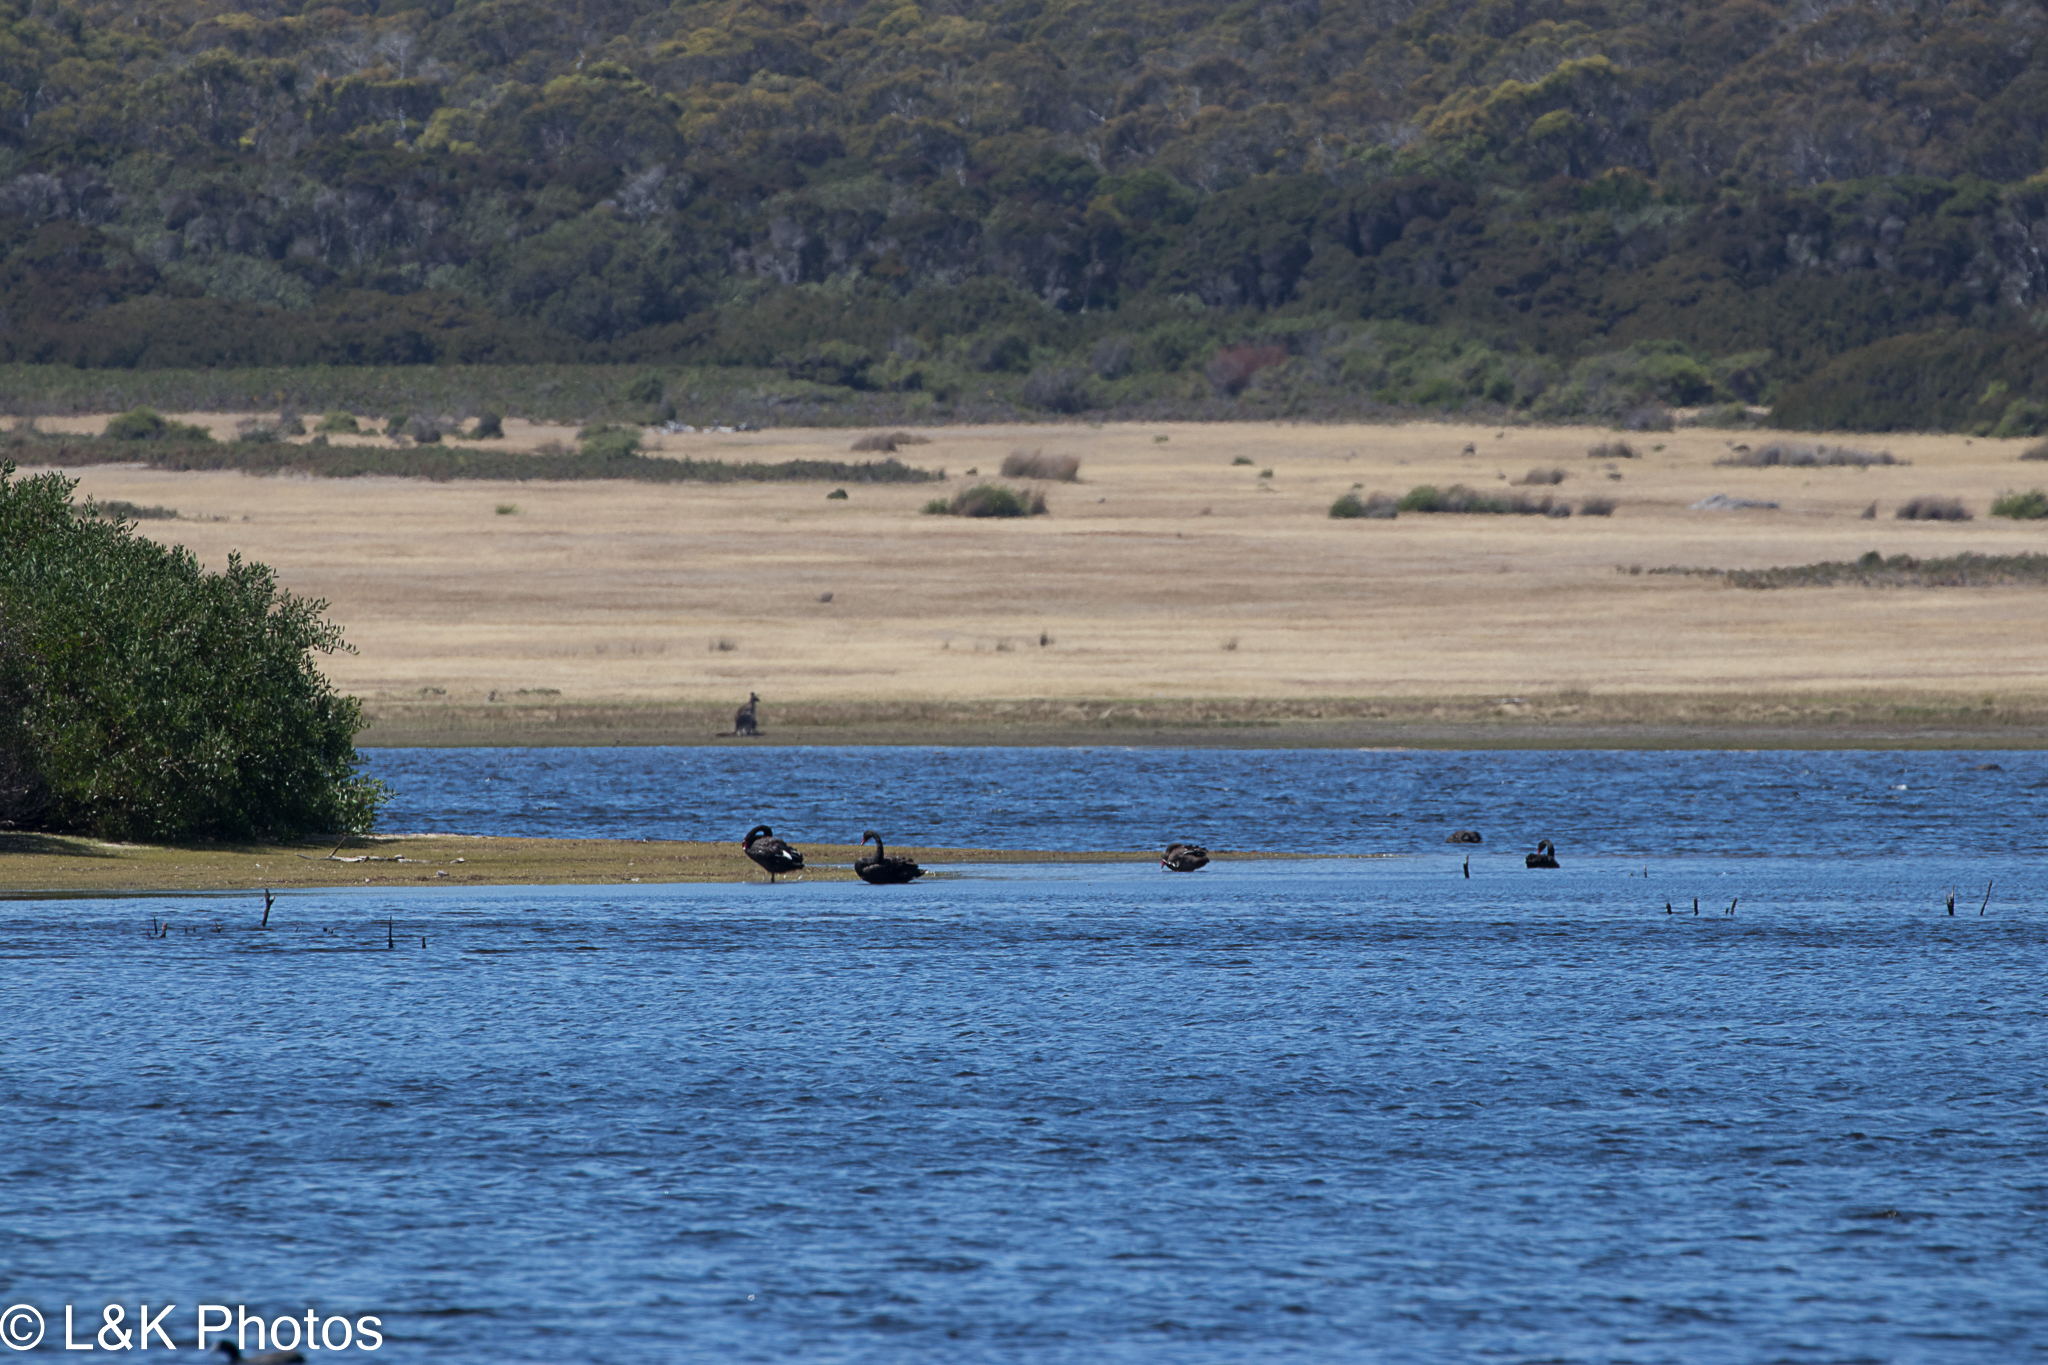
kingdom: Animalia
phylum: Chordata
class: Aves
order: Anseriformes
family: Anatidae
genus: Cygnus
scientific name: Cygnus atratus
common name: Black swan
